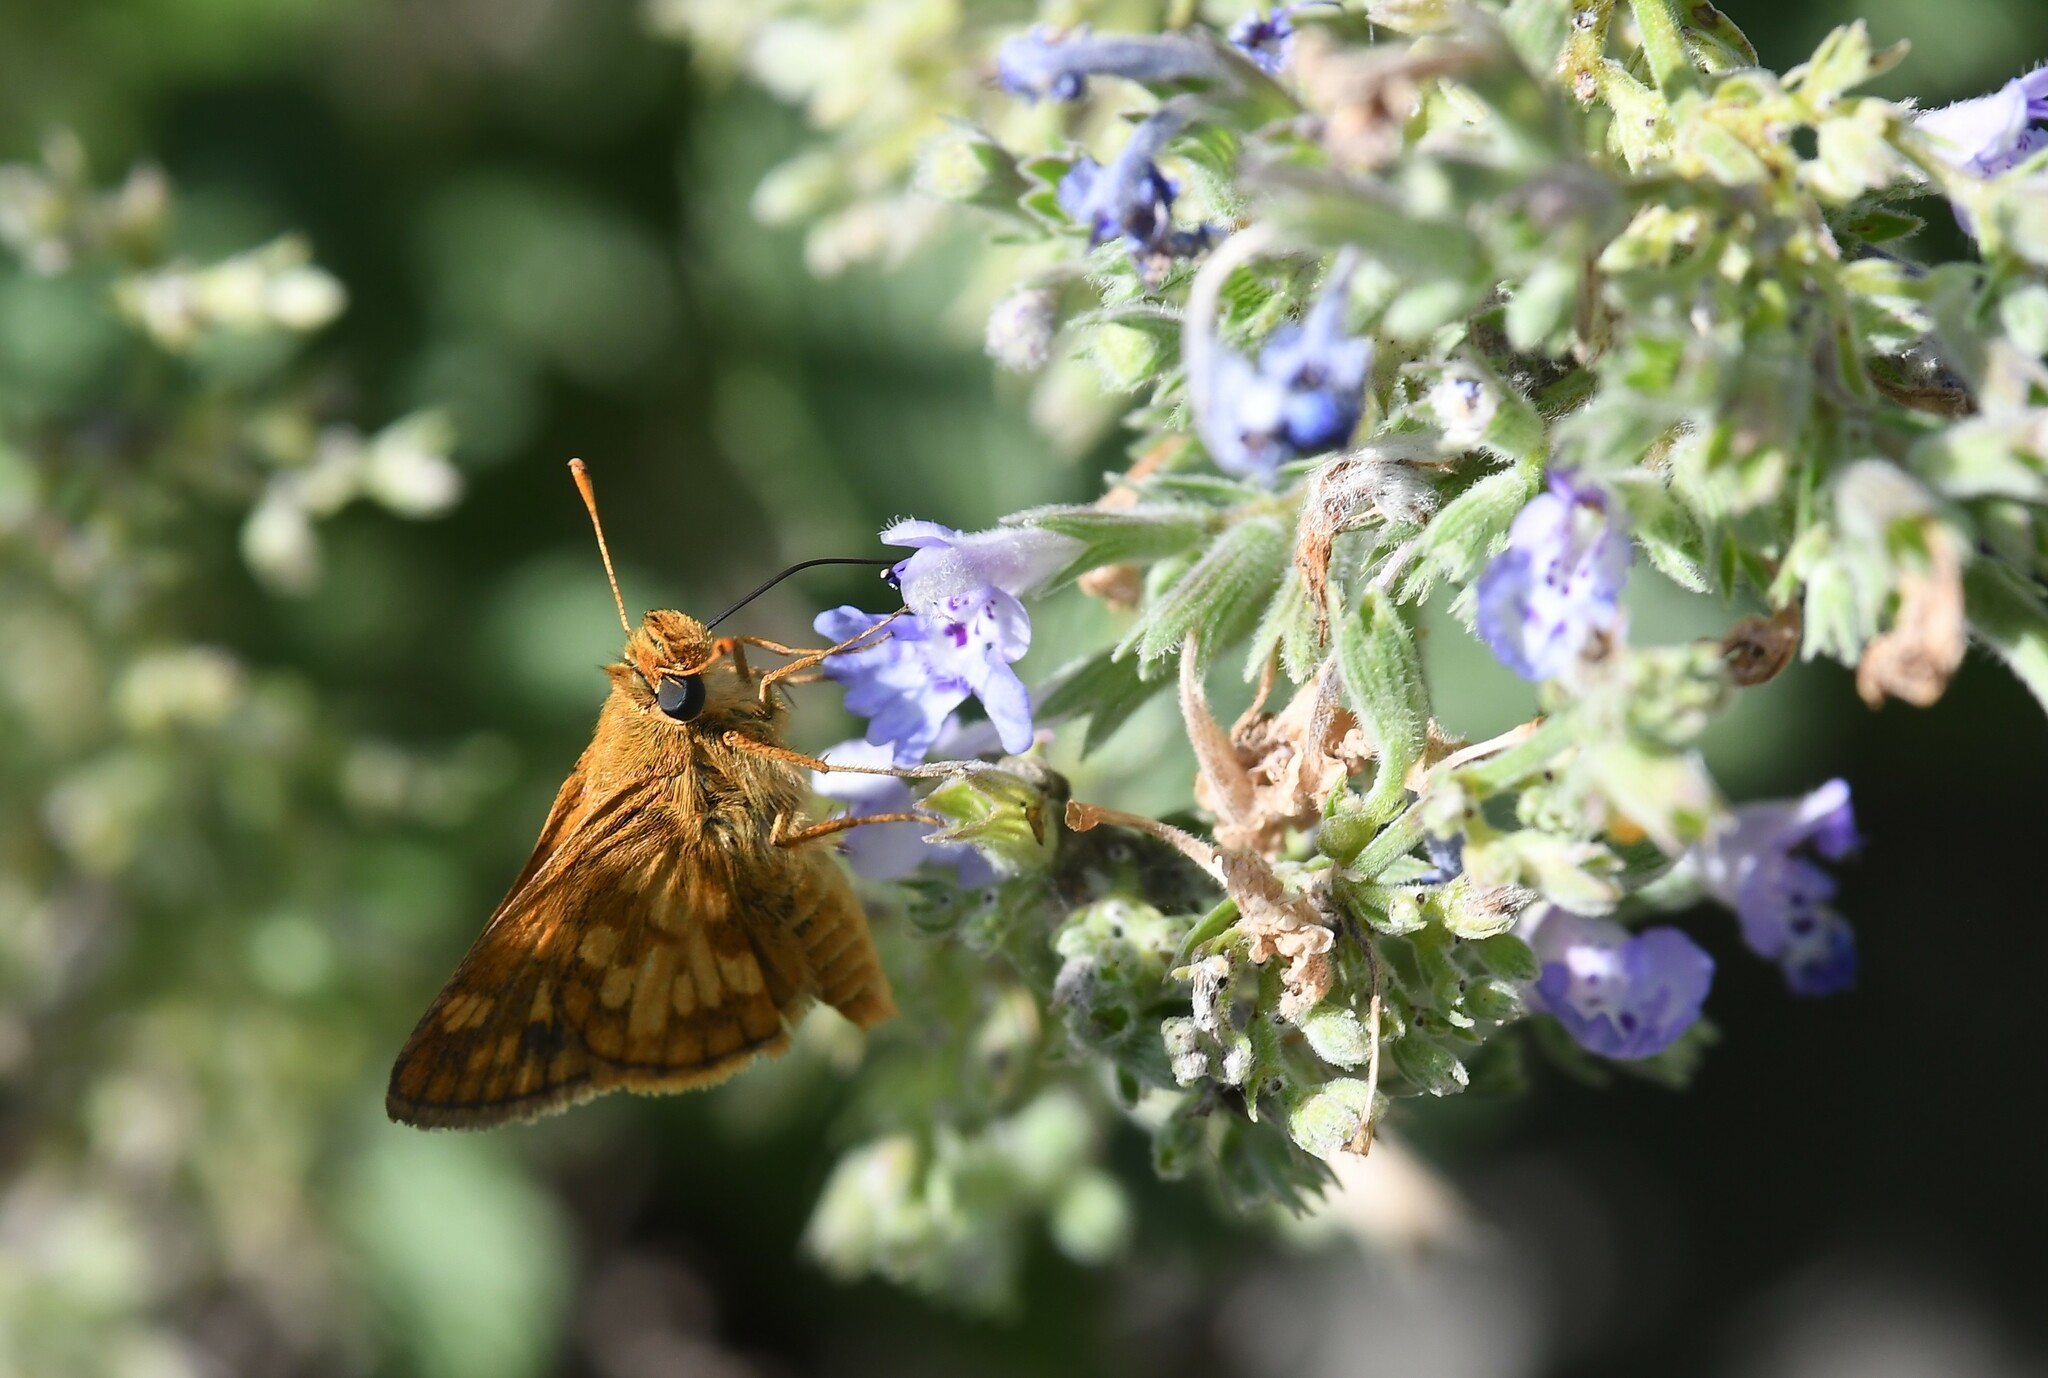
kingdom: Animalia
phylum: Arthropoda
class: Insecta
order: Lepidoptera
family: Hesperiidae
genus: Polites
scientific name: Polites coras
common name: Peck's skipper
